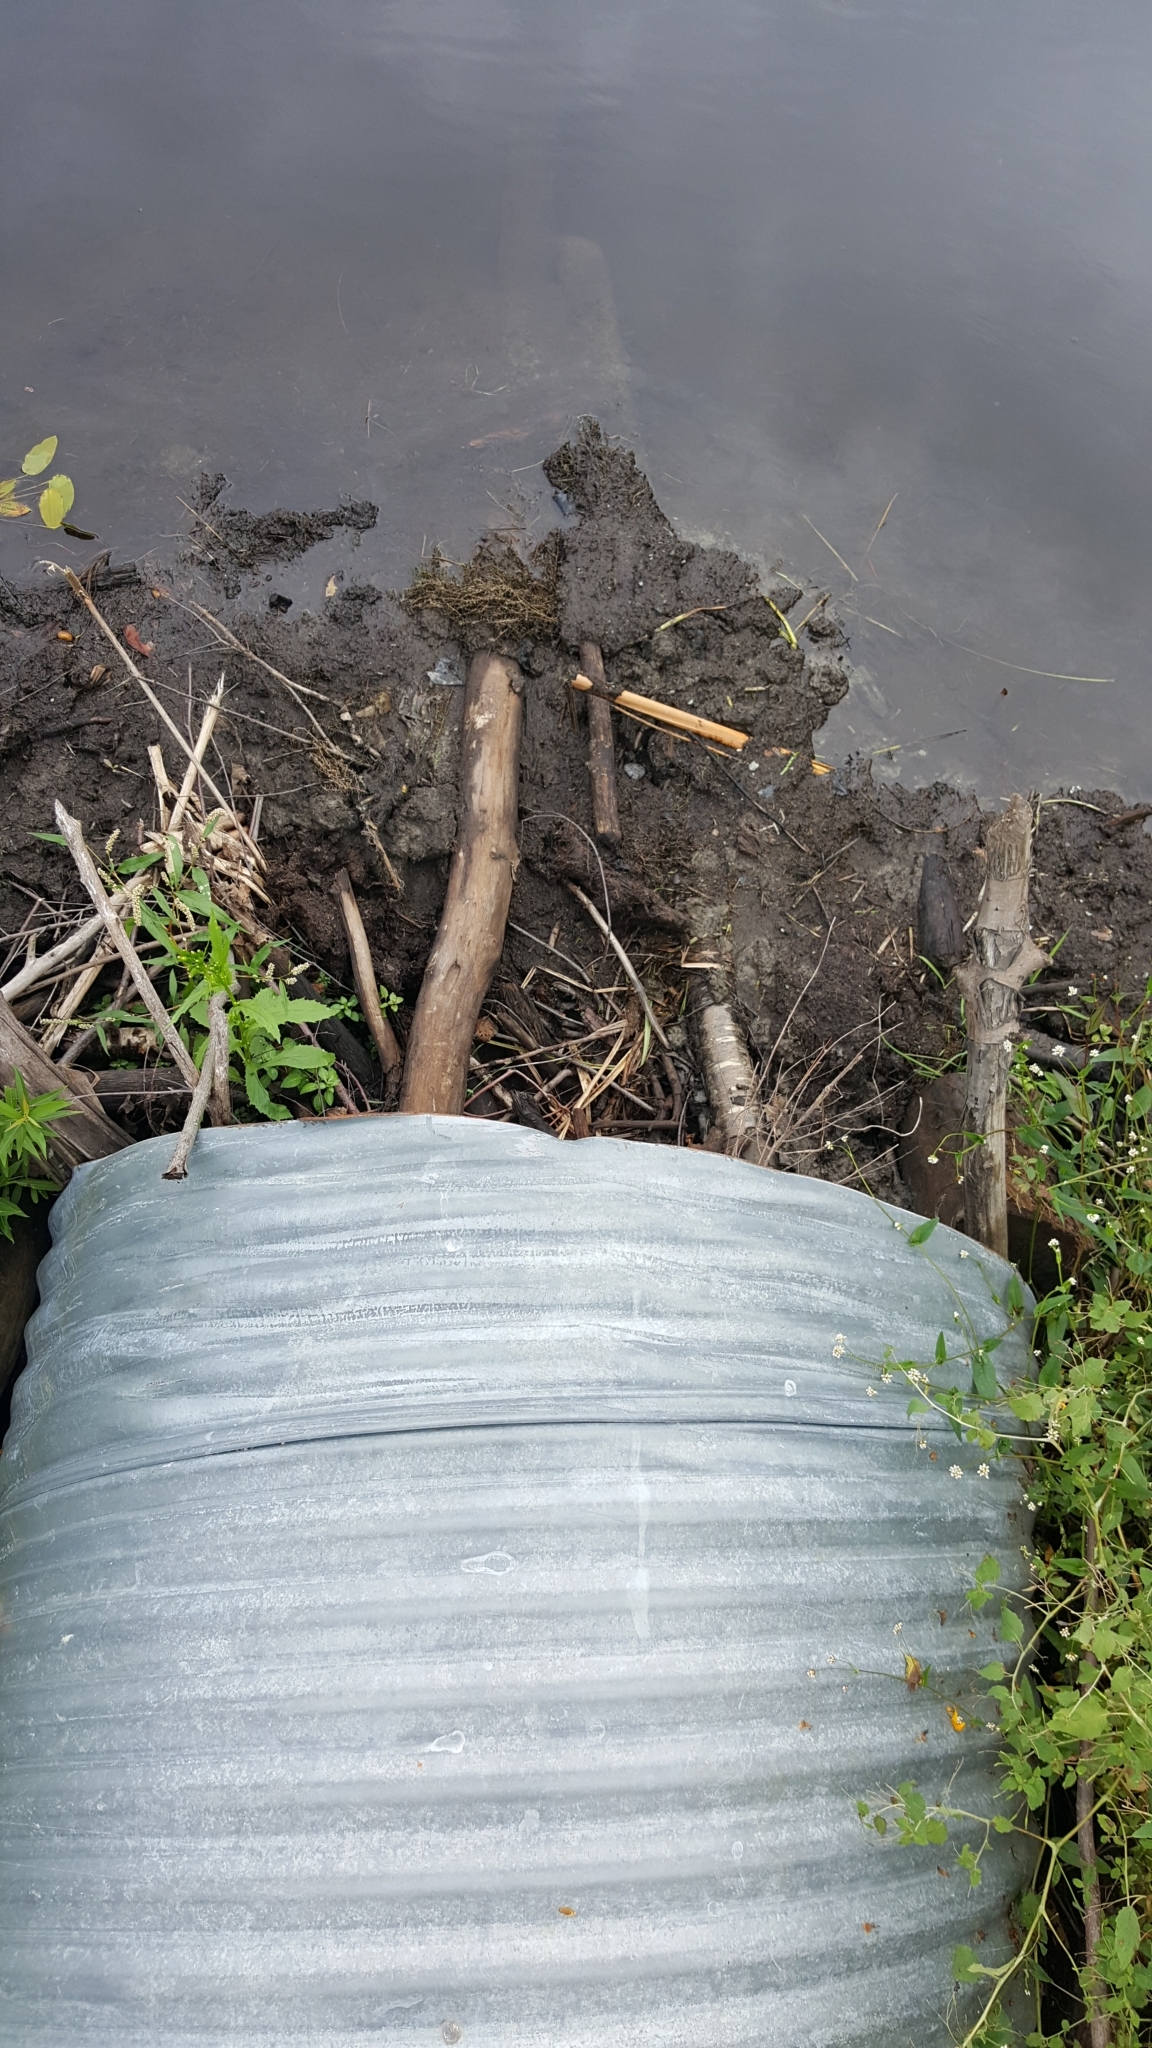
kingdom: Animalia
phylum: Chordata
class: Mammalia
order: Rodentia
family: Castoridae
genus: Castor
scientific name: Castor canadensis
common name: American beaver
